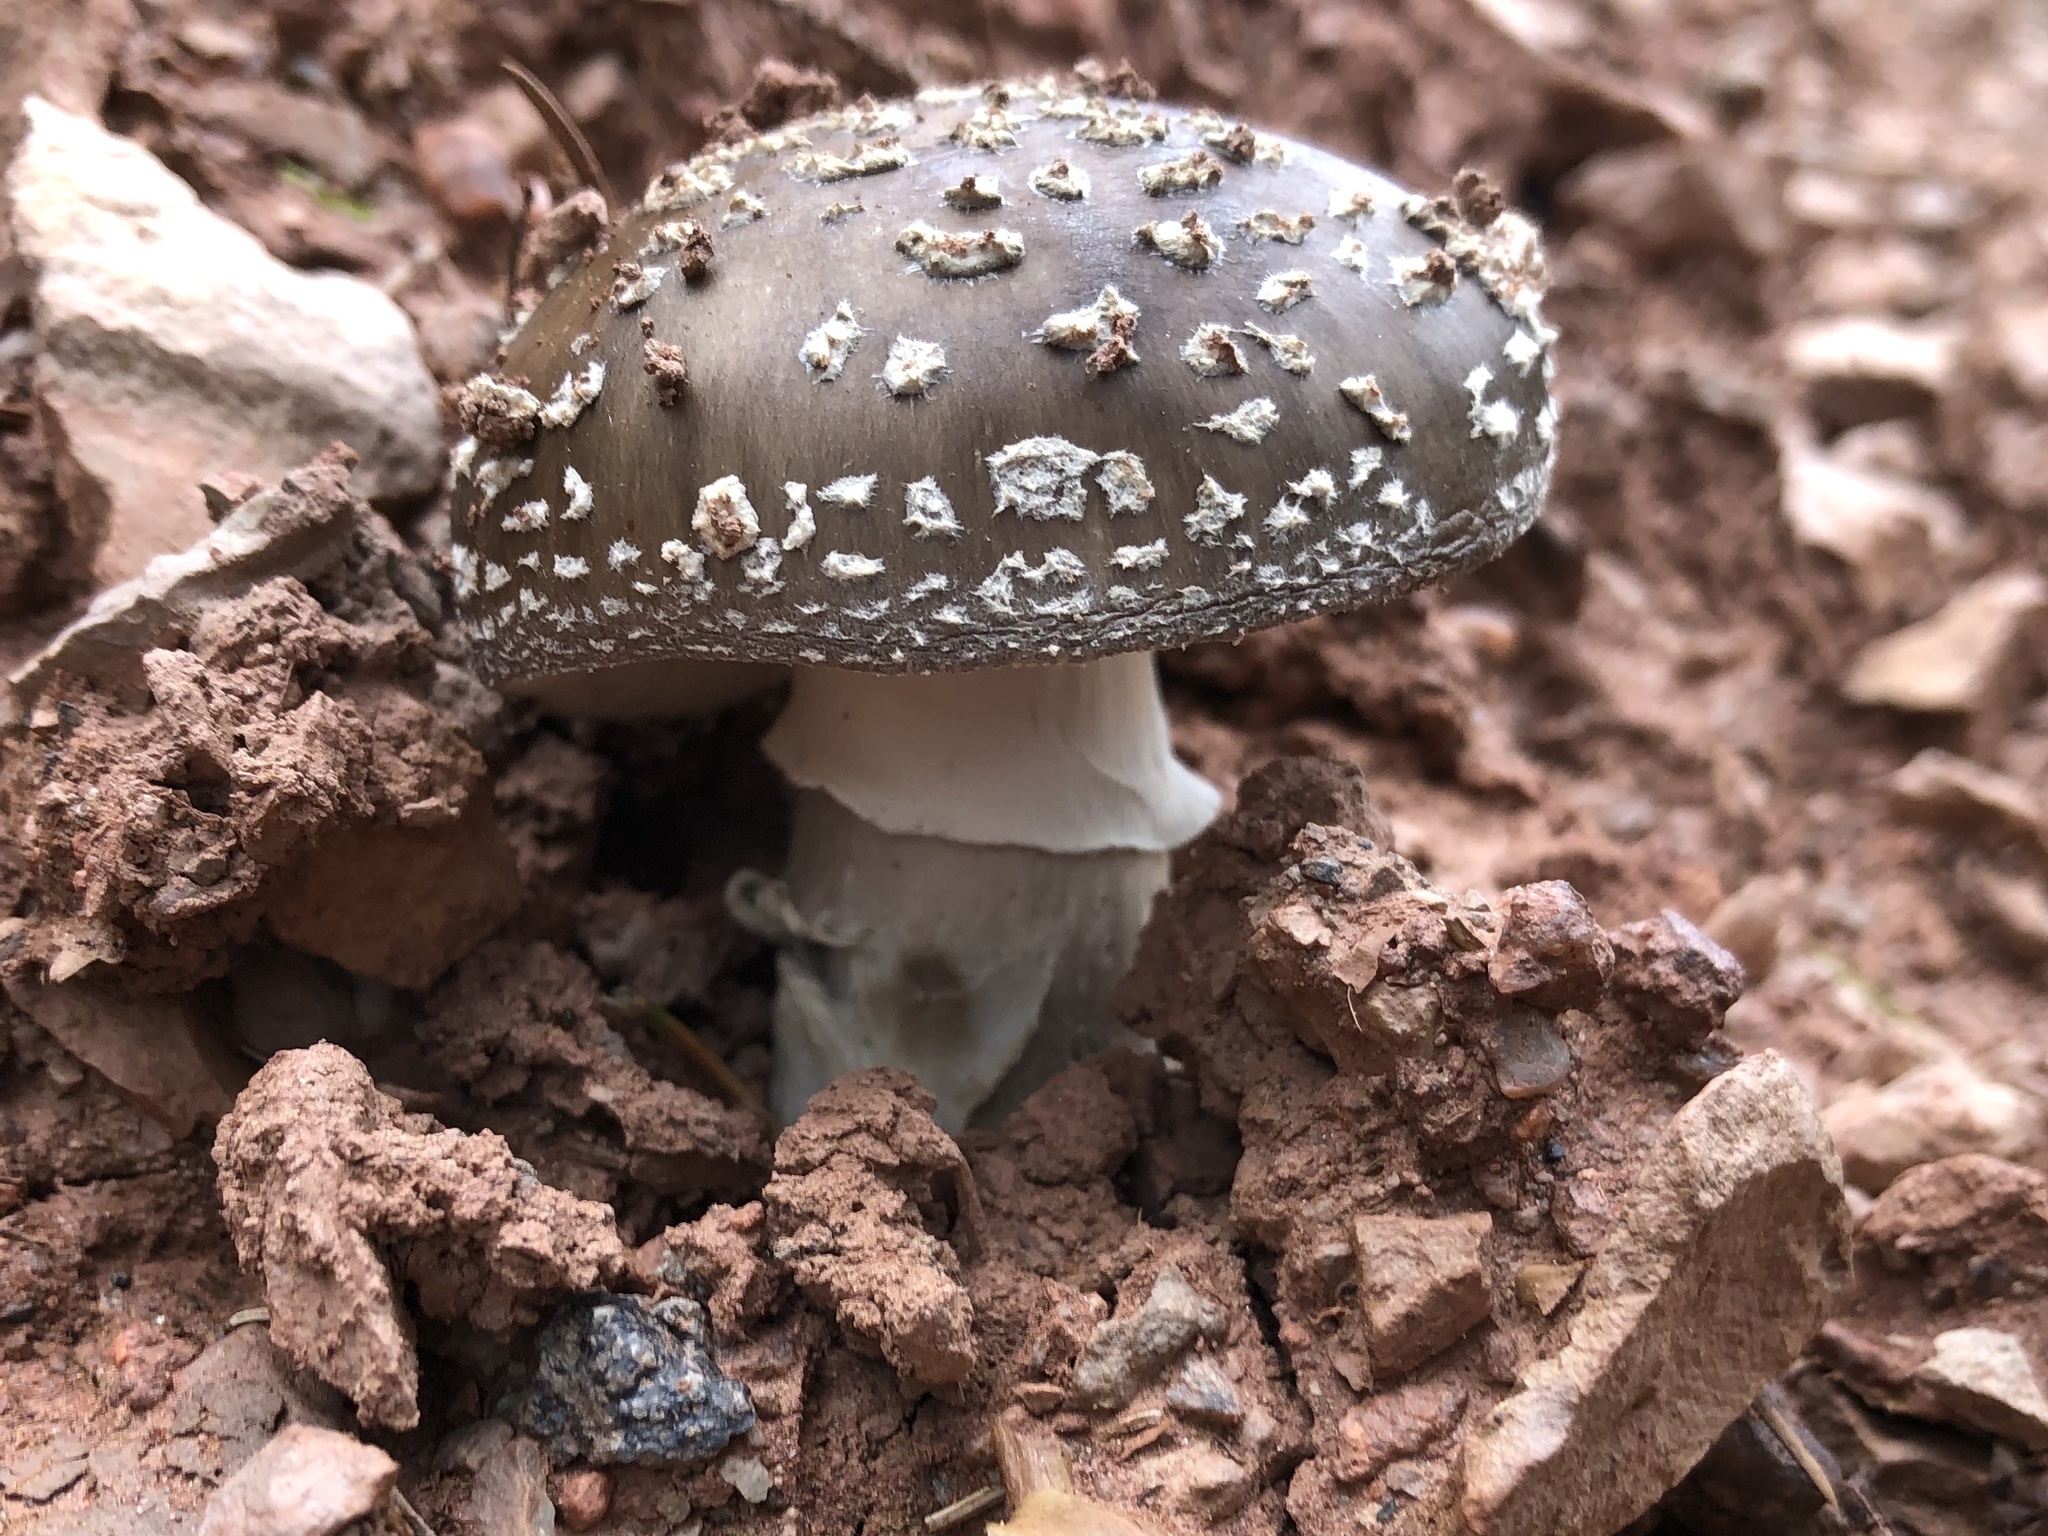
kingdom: Fungi
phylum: Basidiomycota
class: Agaricomycetes
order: Agaricales
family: Amanitaceae
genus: Amanita
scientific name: Amanita pantherina
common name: Panthercap
